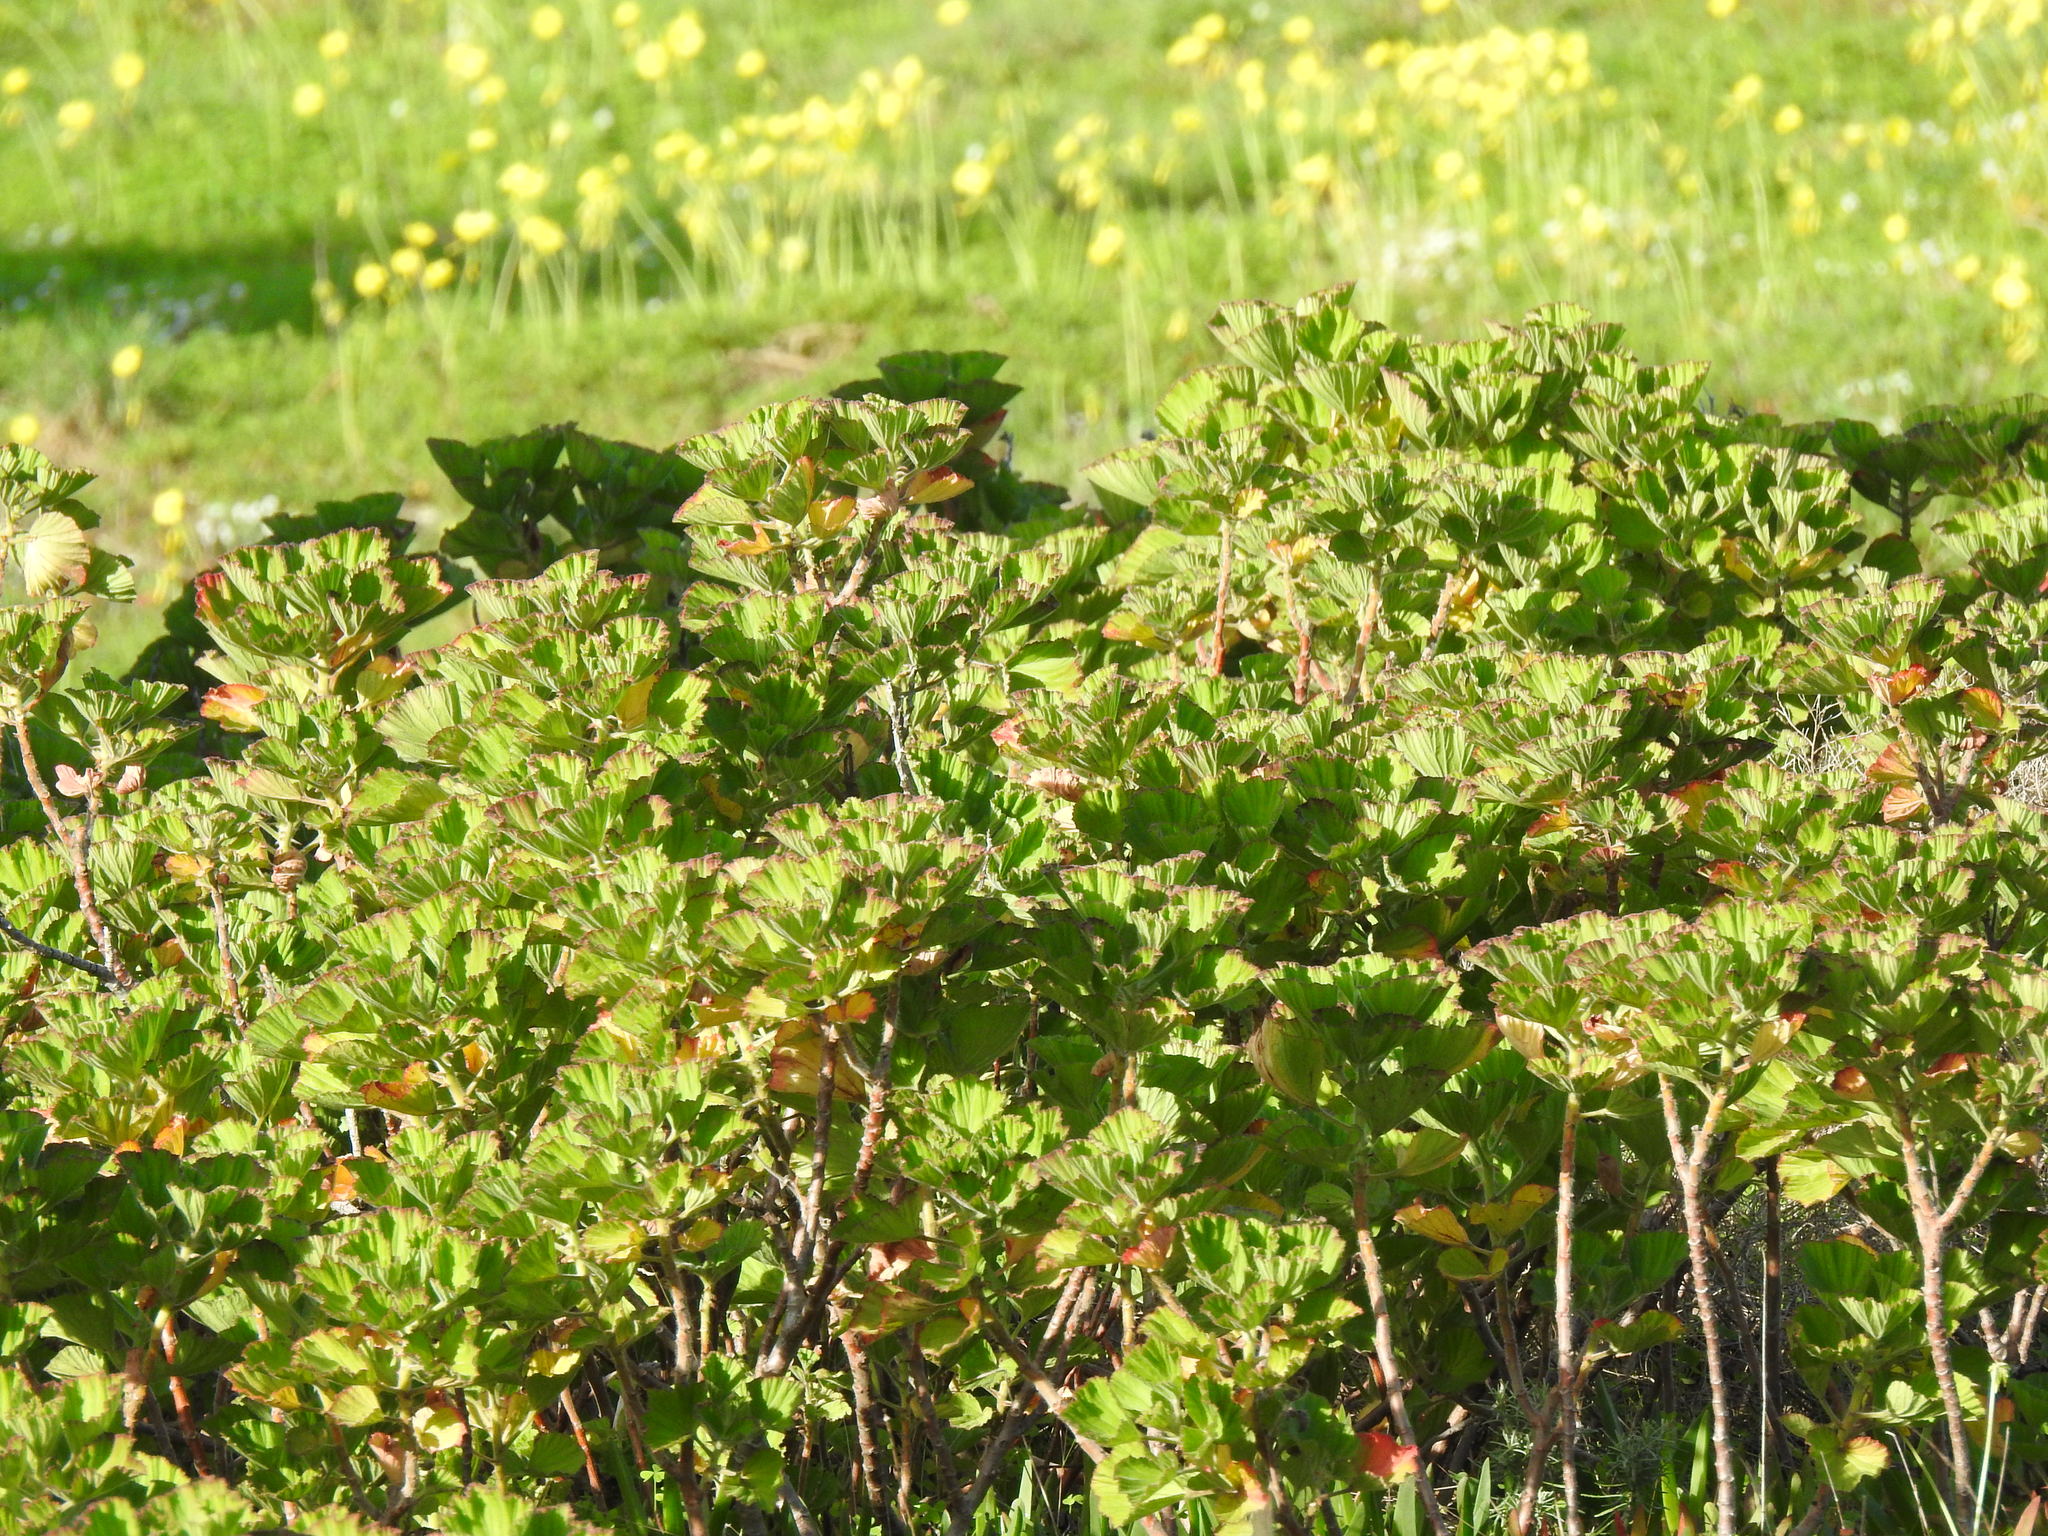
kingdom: Plantae
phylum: Tracheophyta
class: Magnoliopsida
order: Geraniales
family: Geraniaceae
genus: Pelargonium
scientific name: Pelargonium cucullatum
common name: Tree pelargonium
